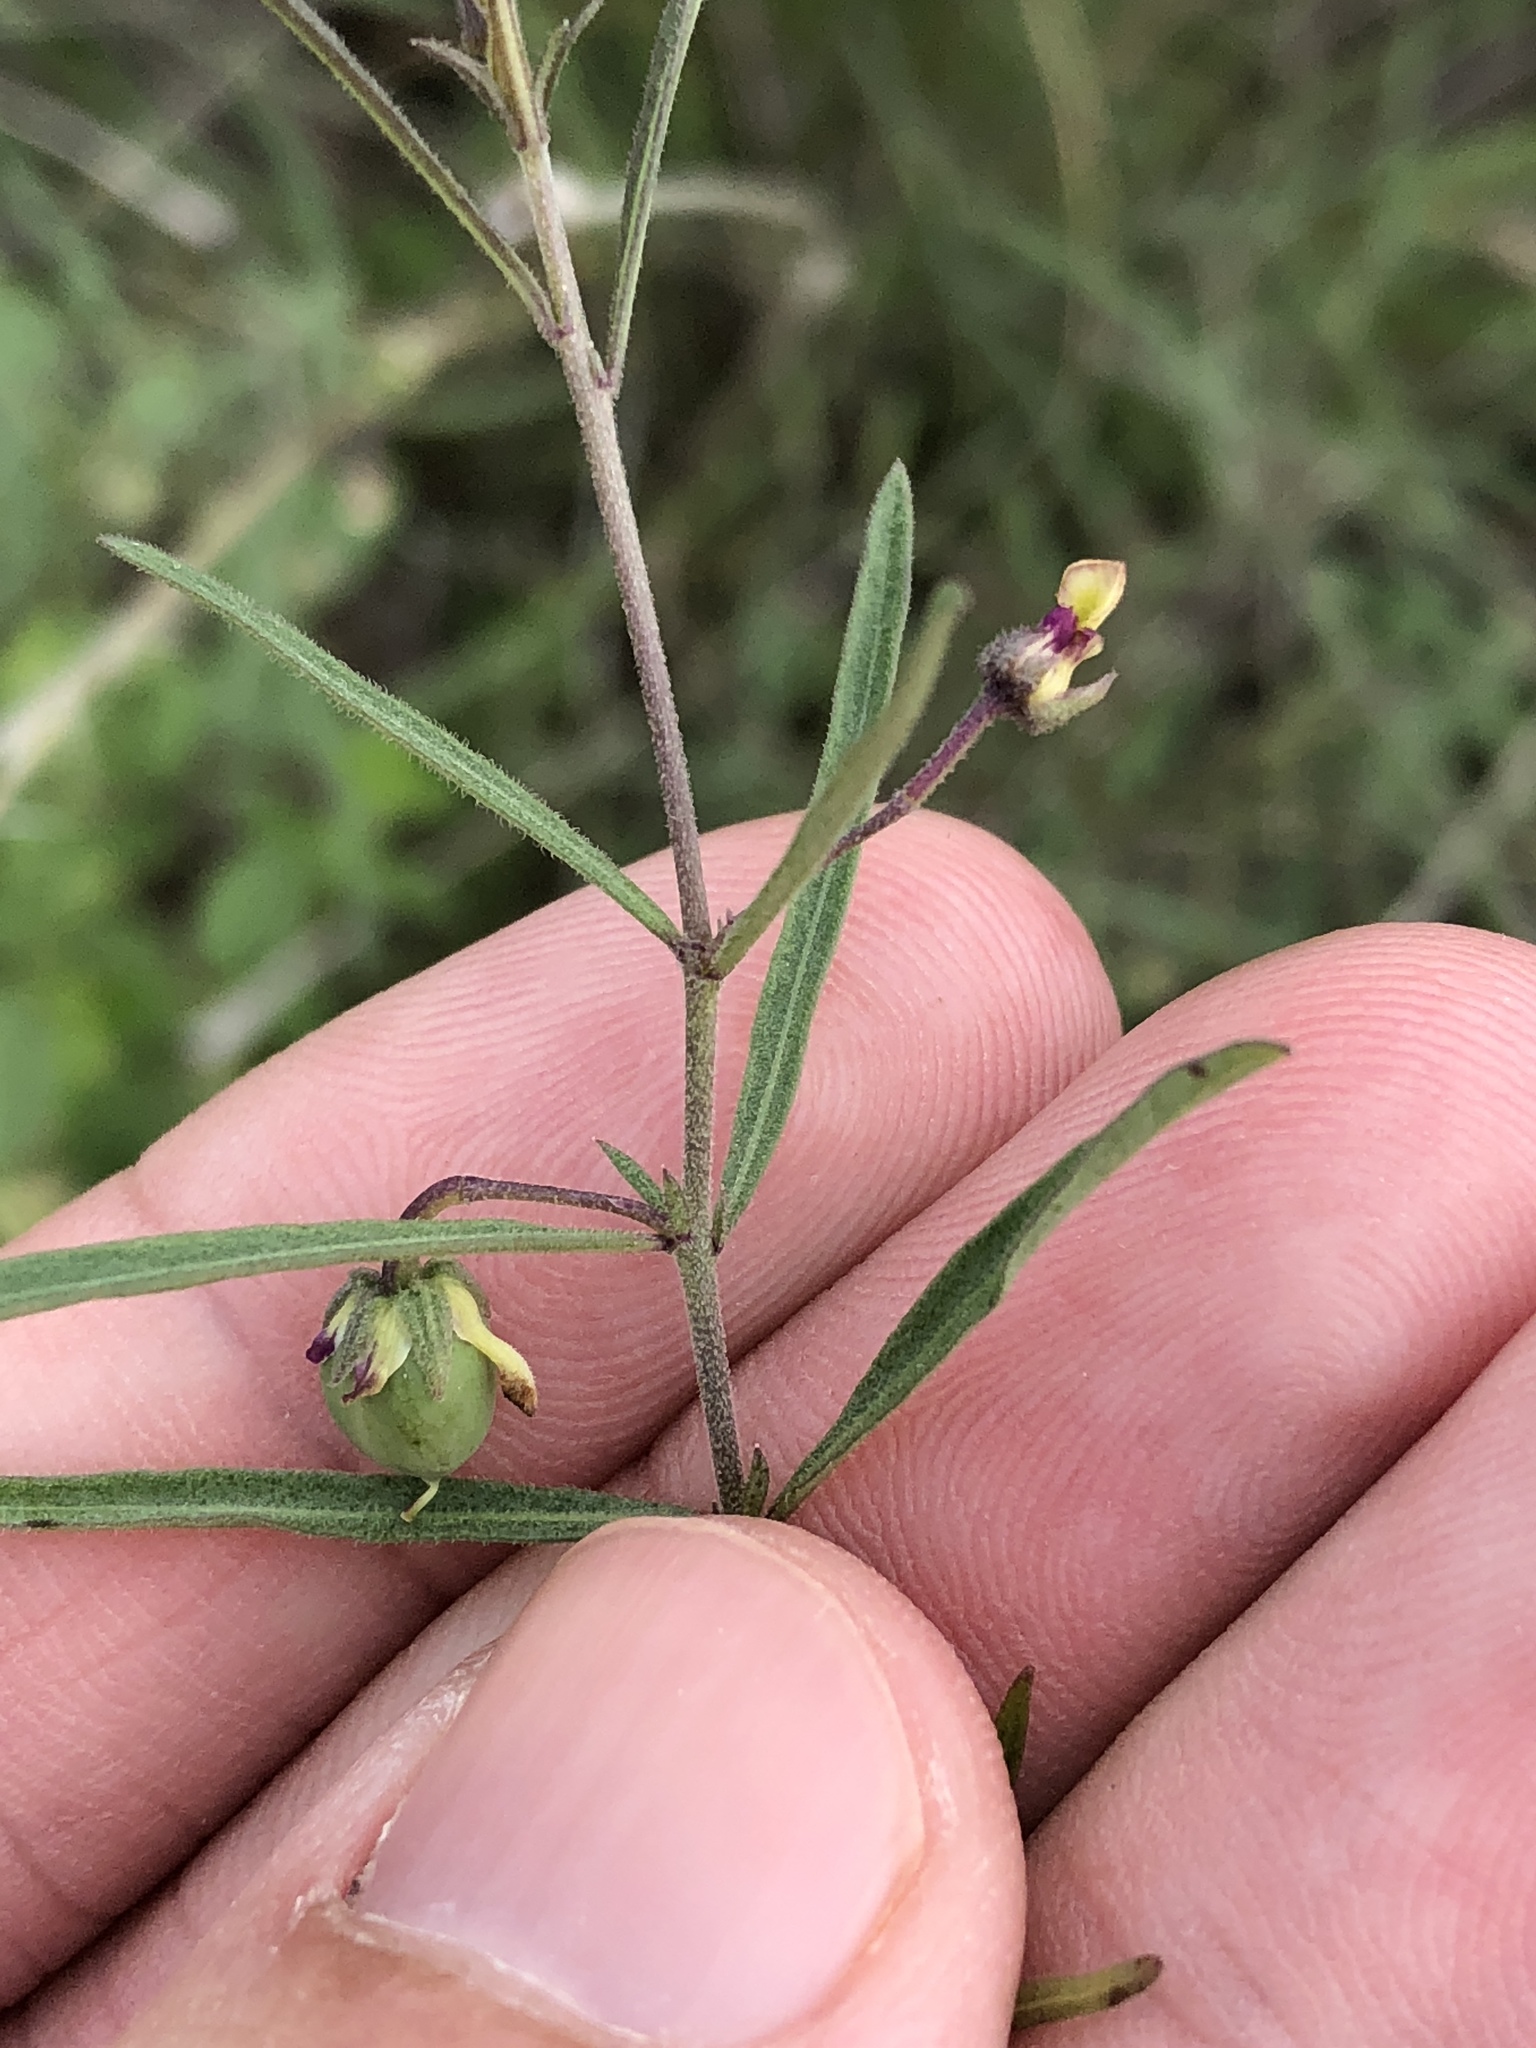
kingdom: Plantae
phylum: Tracheophyta
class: Magnoliopsida
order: Malpighiales
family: Violaceae
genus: Pombalia
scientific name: Pombalia verticillata
